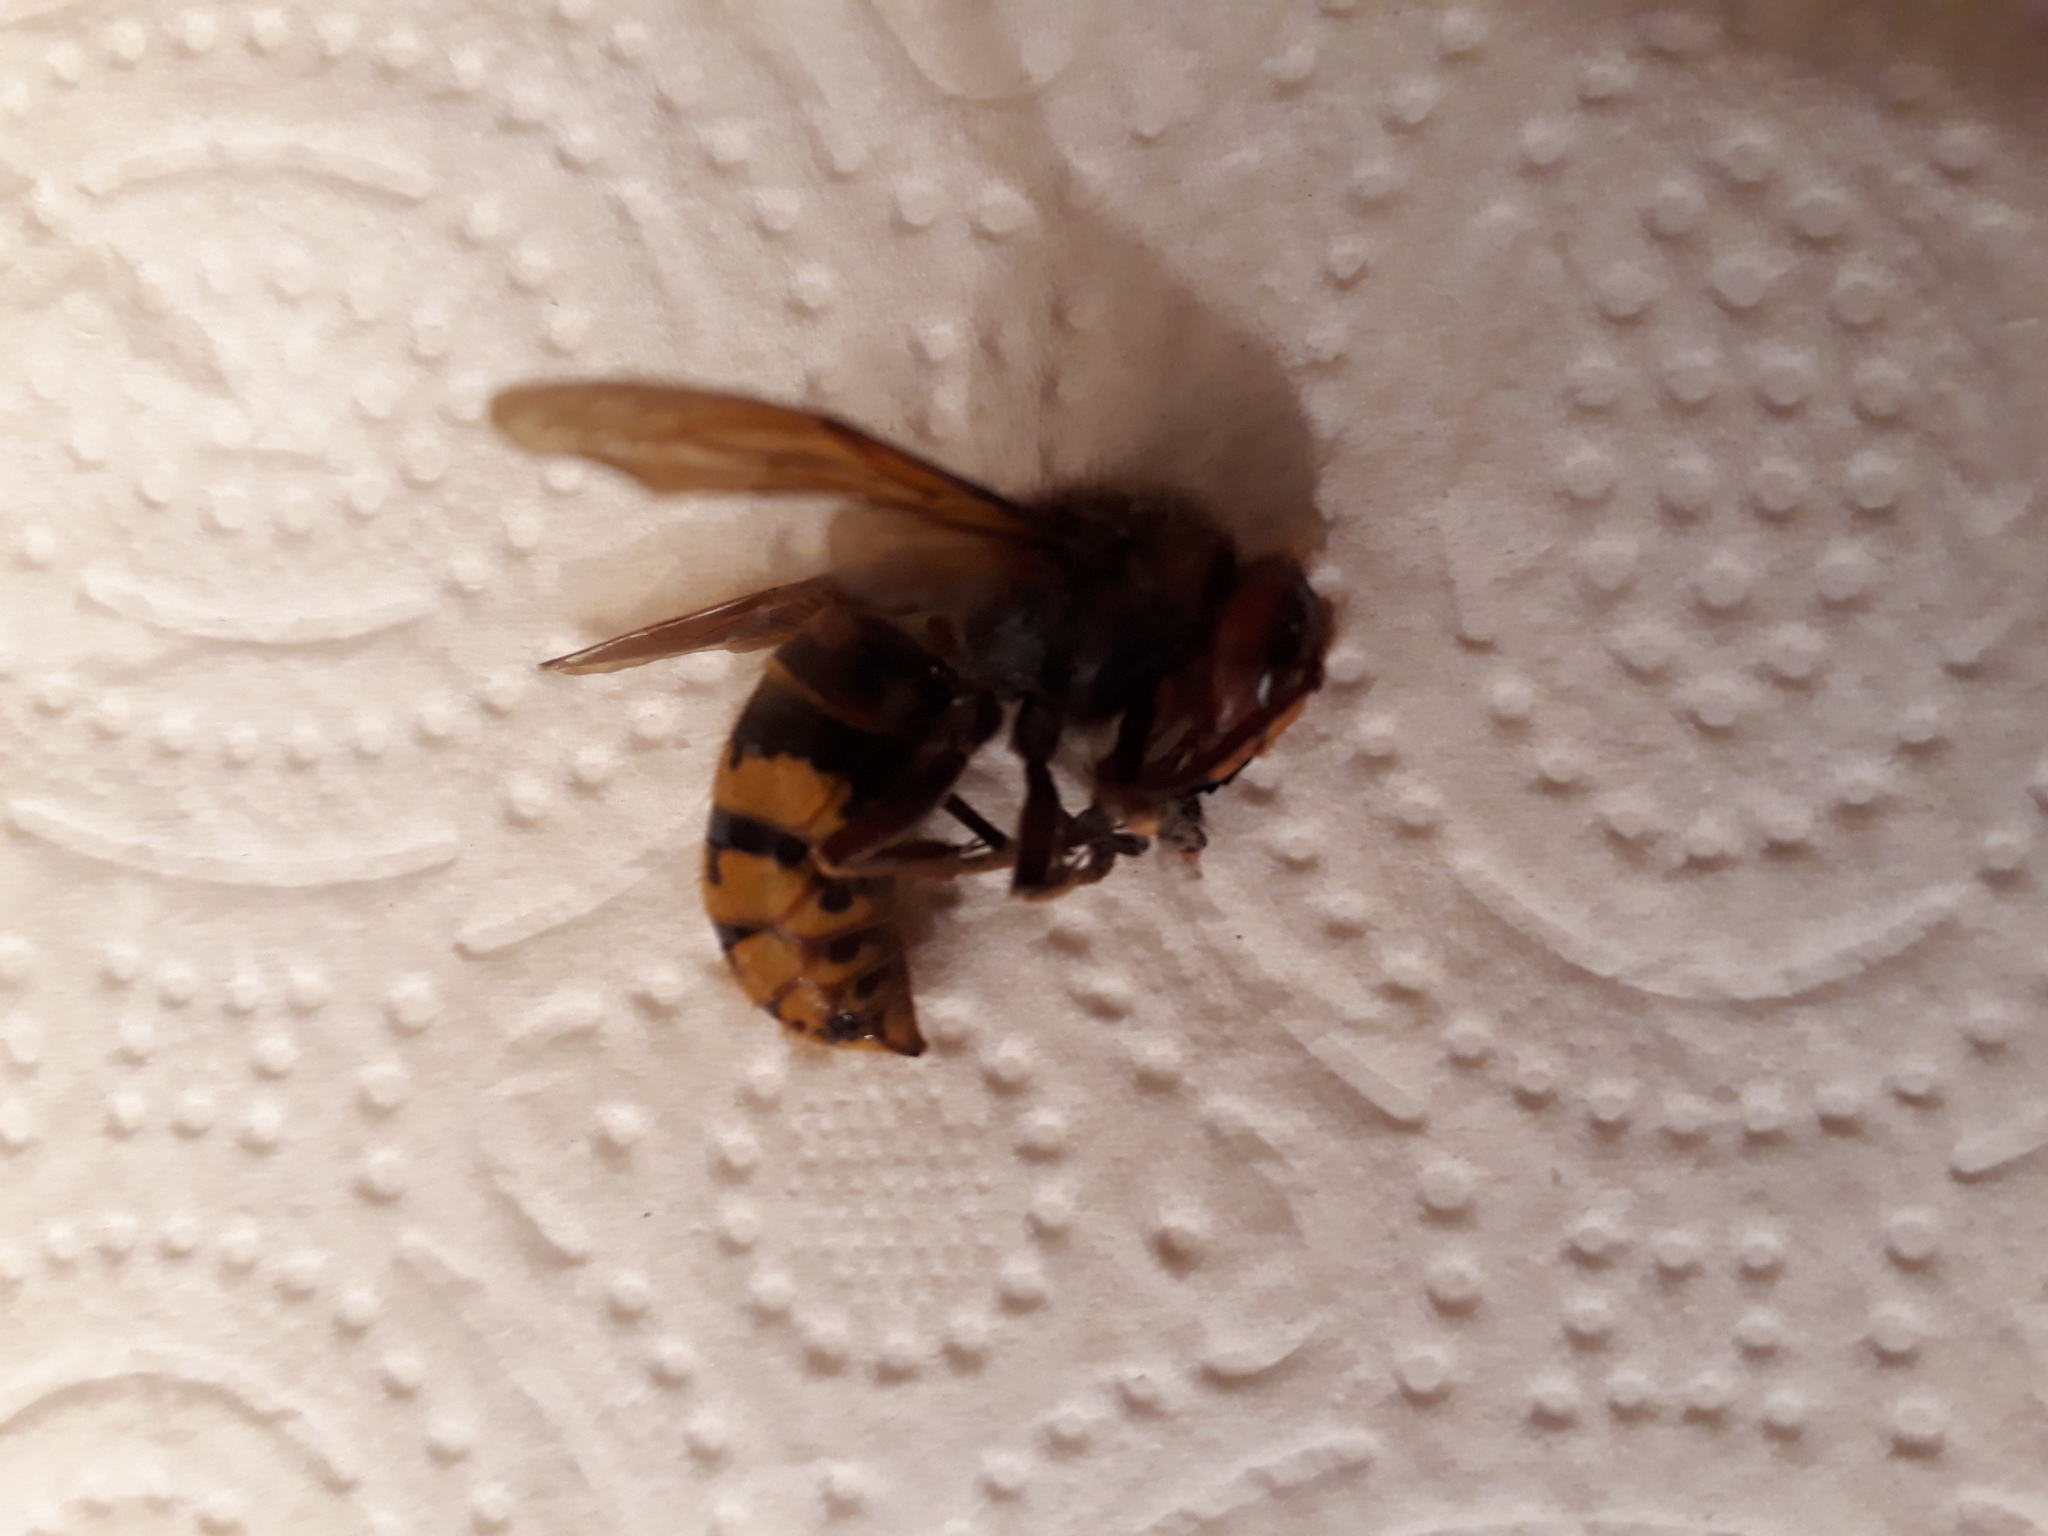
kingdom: Animalia
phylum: Arthropoda
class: Insecta
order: Hymenoptera
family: Vespidae
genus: Vespa
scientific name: Vespa crabro
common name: Hornet
